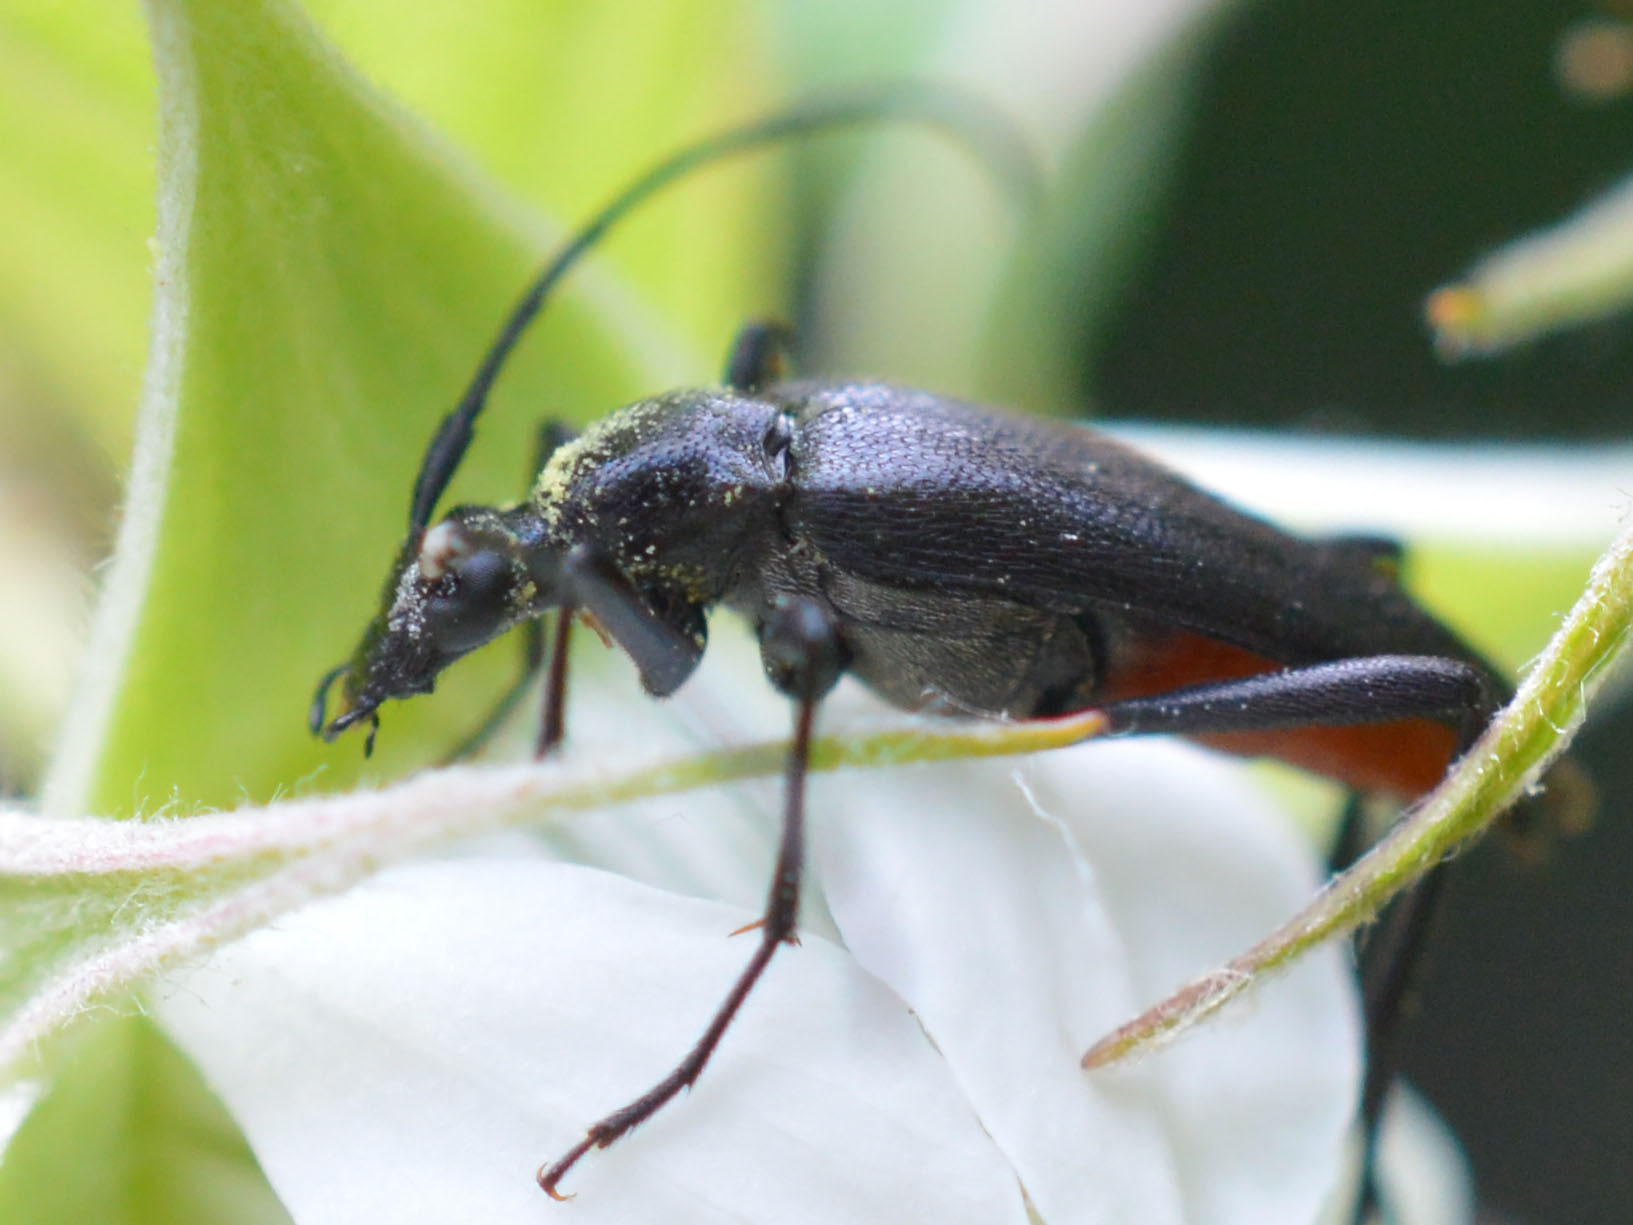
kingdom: Animalia
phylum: Arthropoda
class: Insecta
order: Coleoptera
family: Cerambycidae
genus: Stenurella
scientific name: Stenurella nigra
